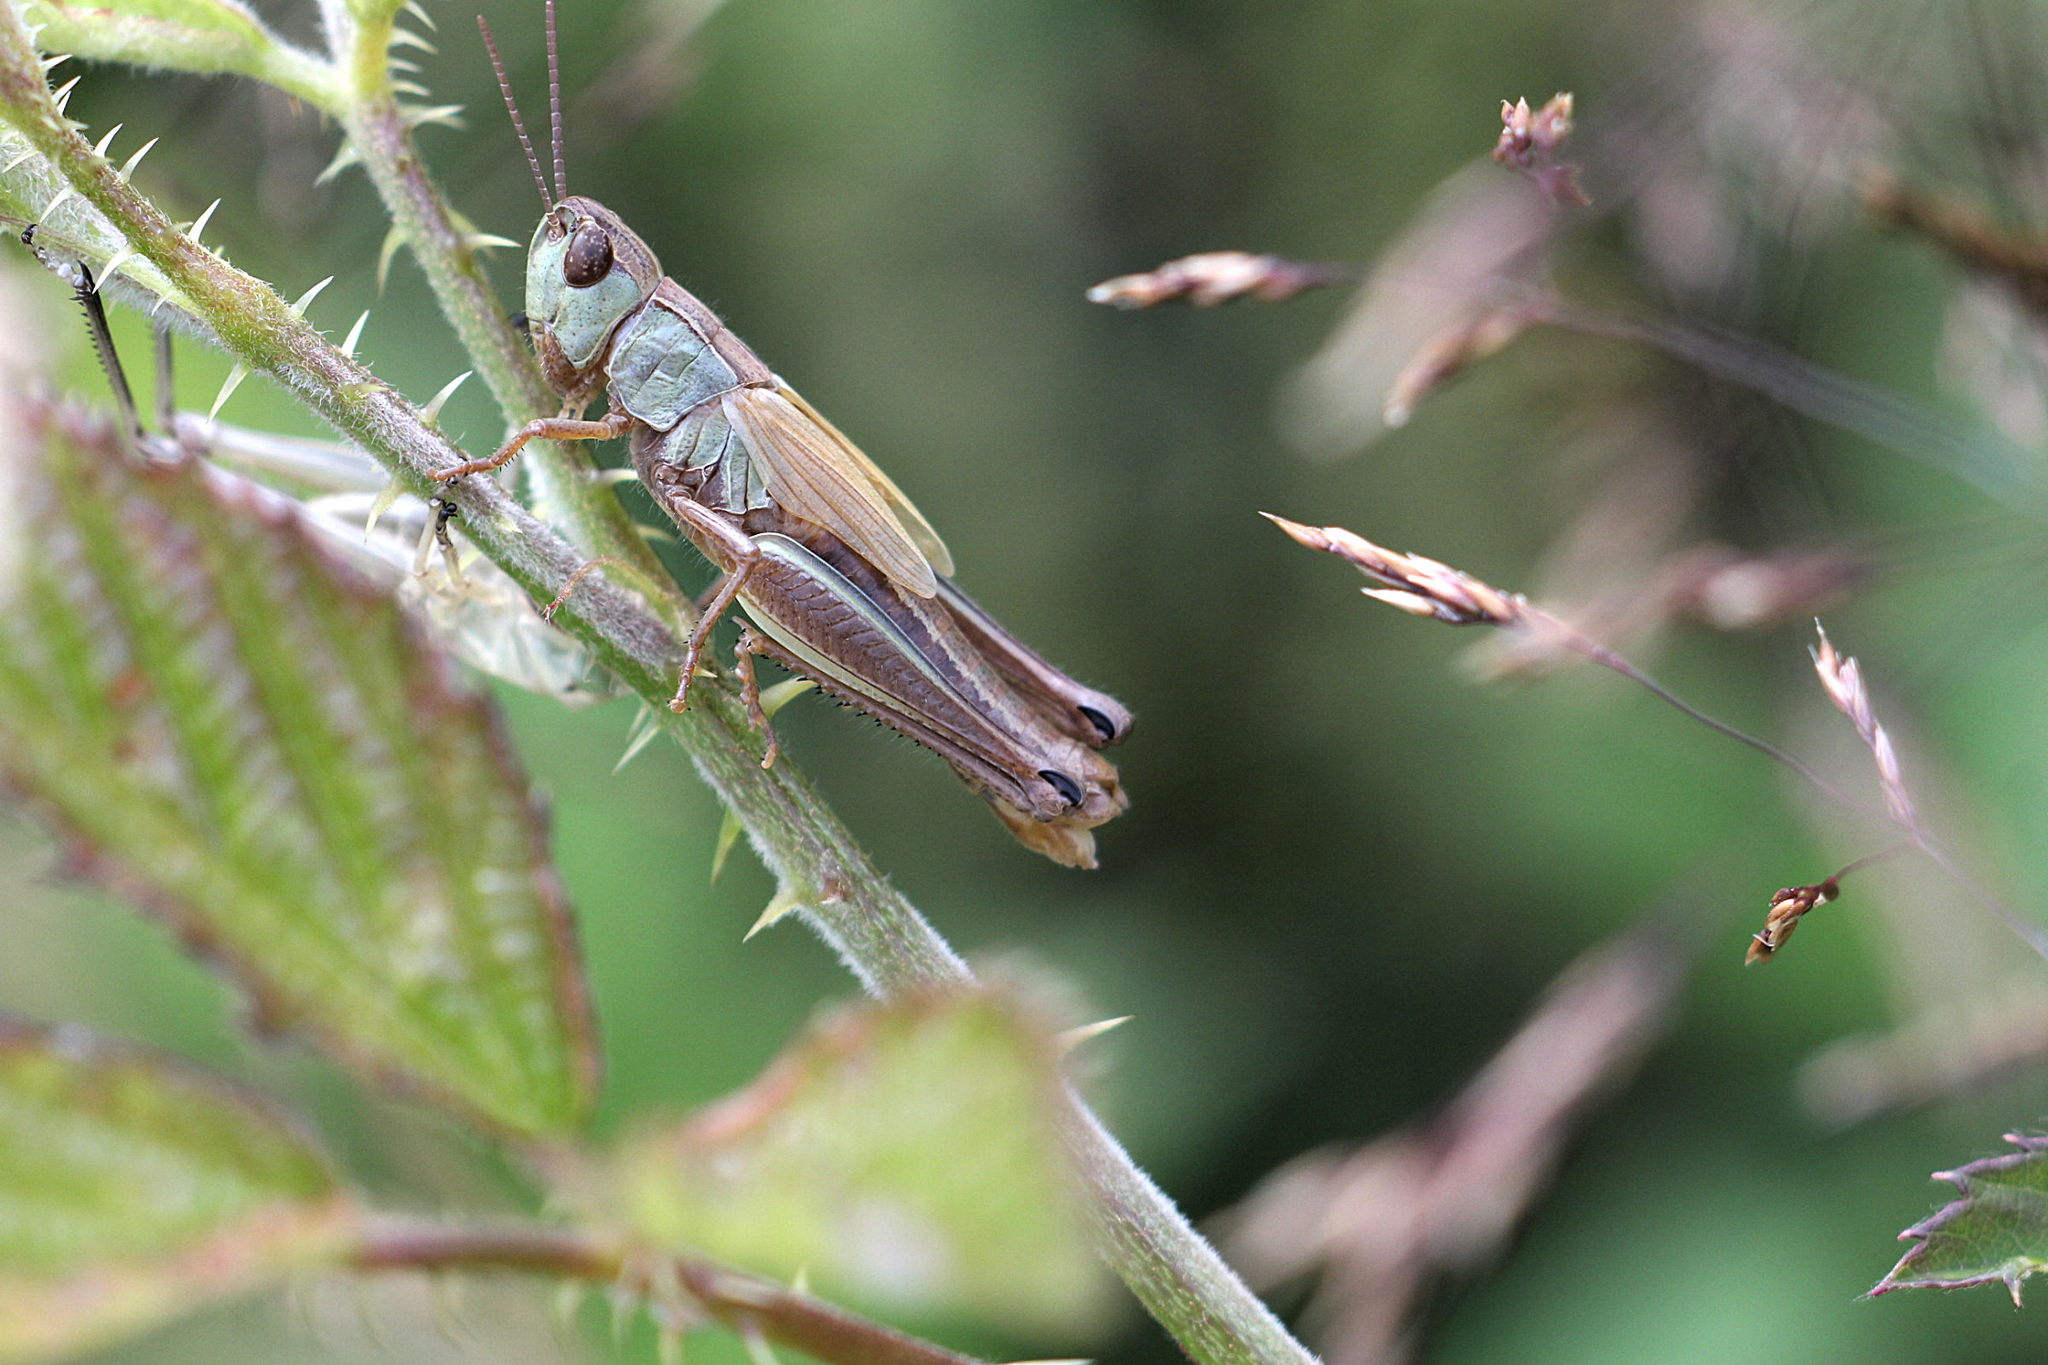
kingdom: Animalia
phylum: Arthropoda
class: Insecta
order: Orthoptera
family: Acrididae
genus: Pseudochorthippus
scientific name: Pseudochorthippus parallelus
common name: Meadow grasshopper
